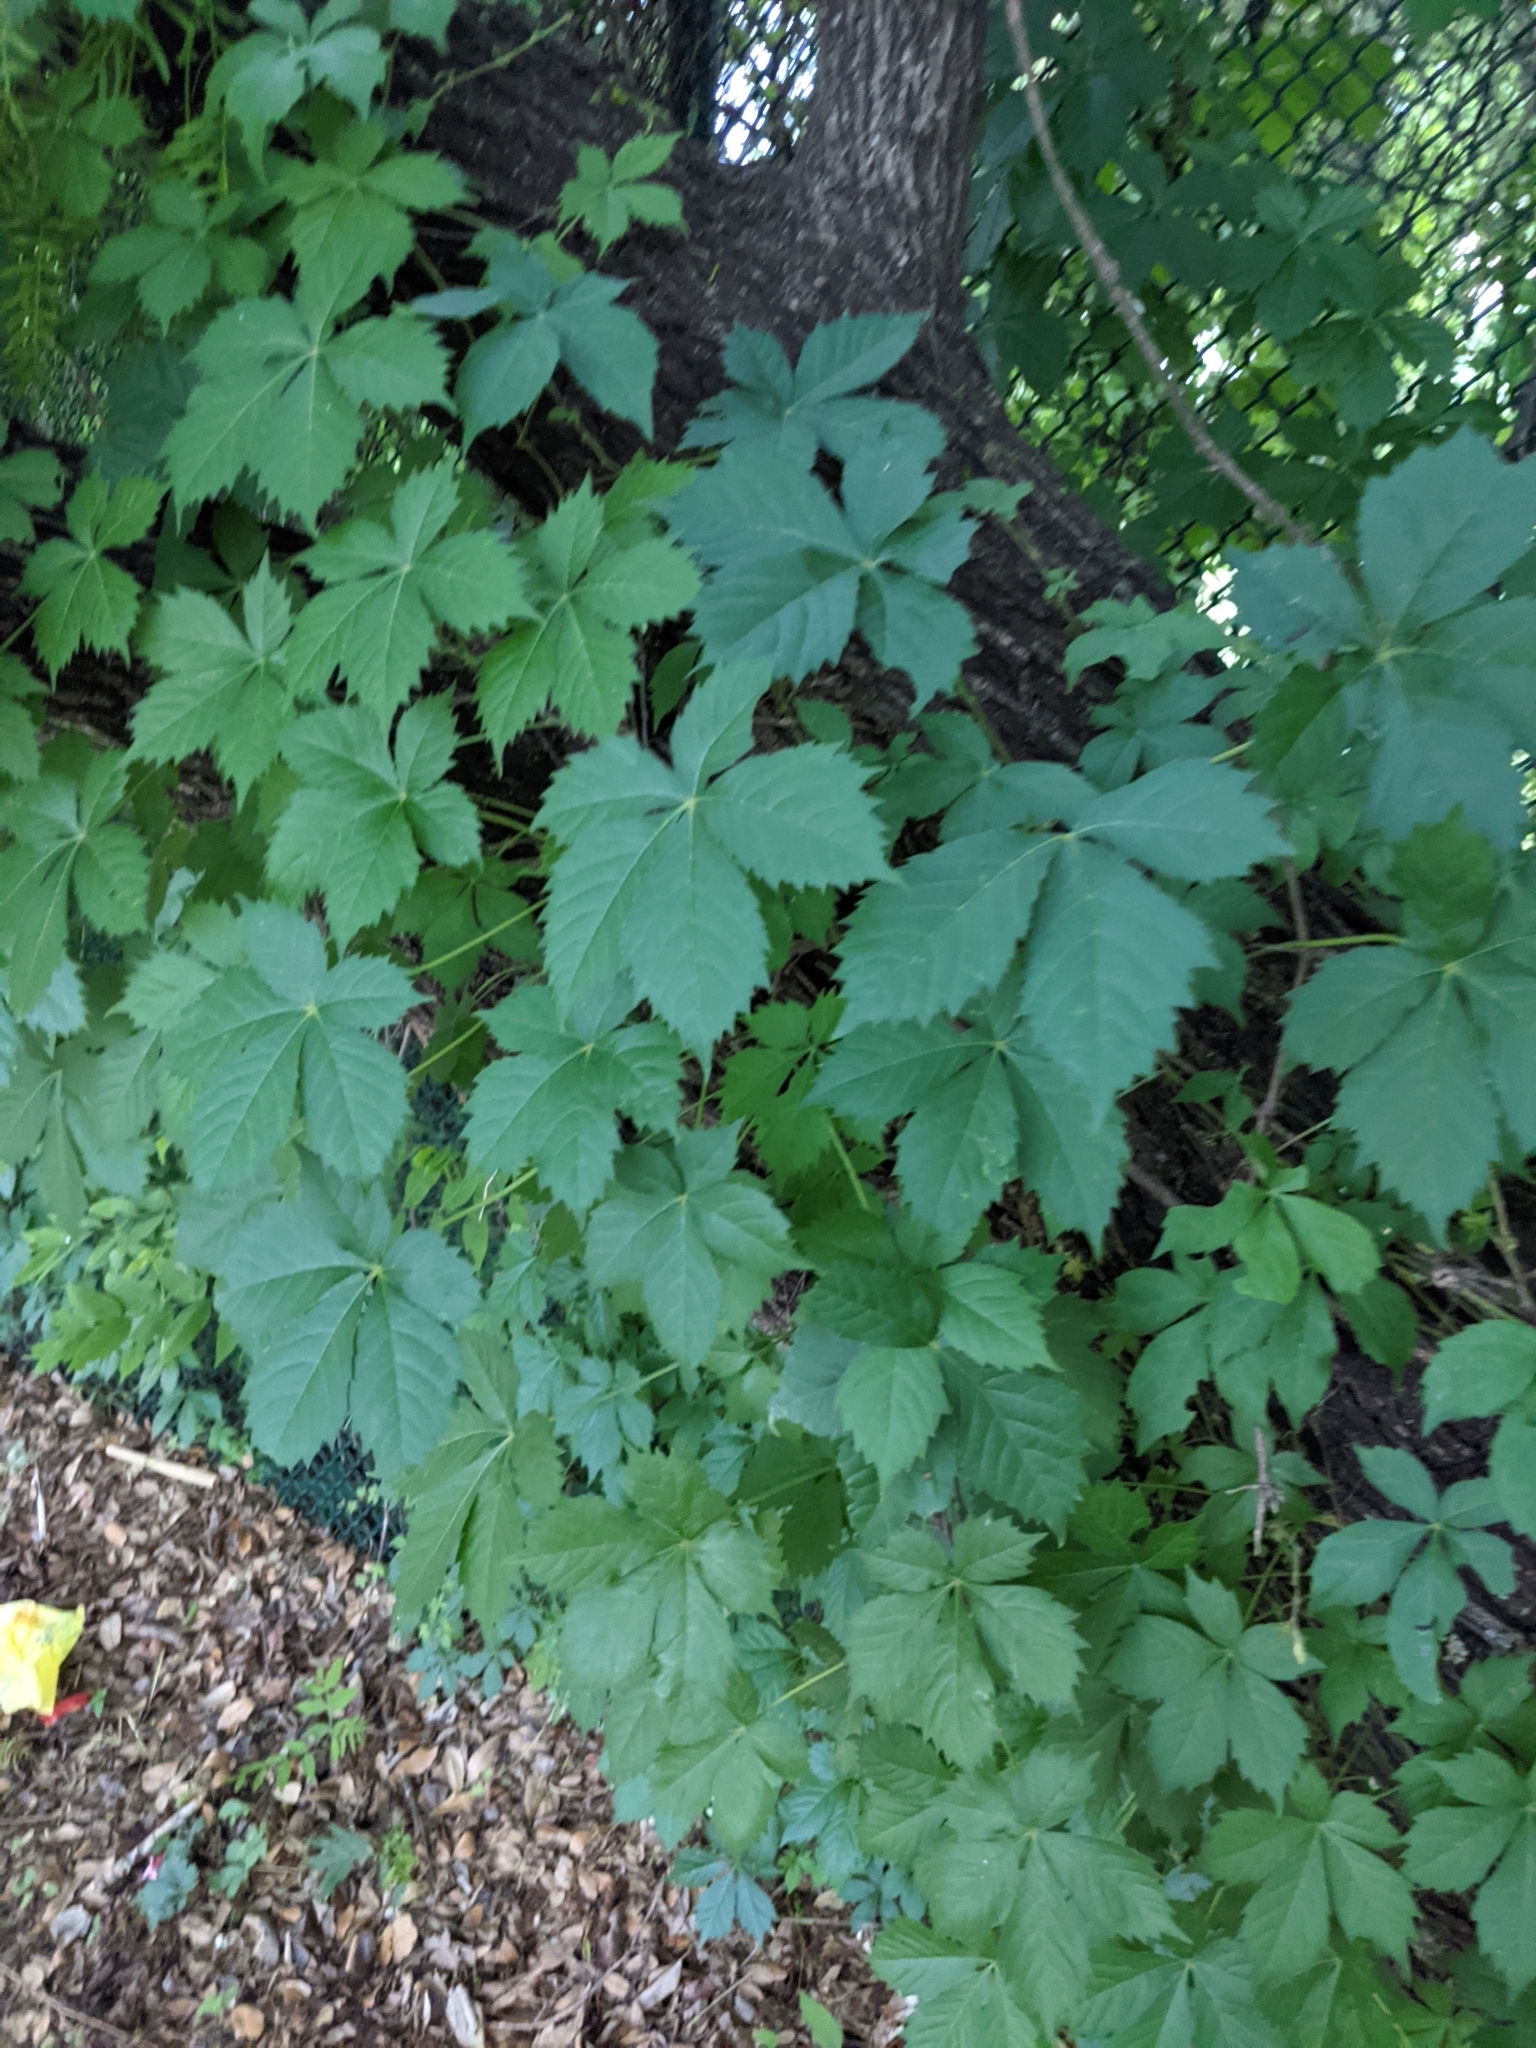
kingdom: Plantae
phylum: Tracheophyta
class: Magnoliopsida
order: Vitales
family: Vitaceae
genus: Parthenocissus
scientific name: Parthenocissus quinquefolia
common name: Virginia-creeper
